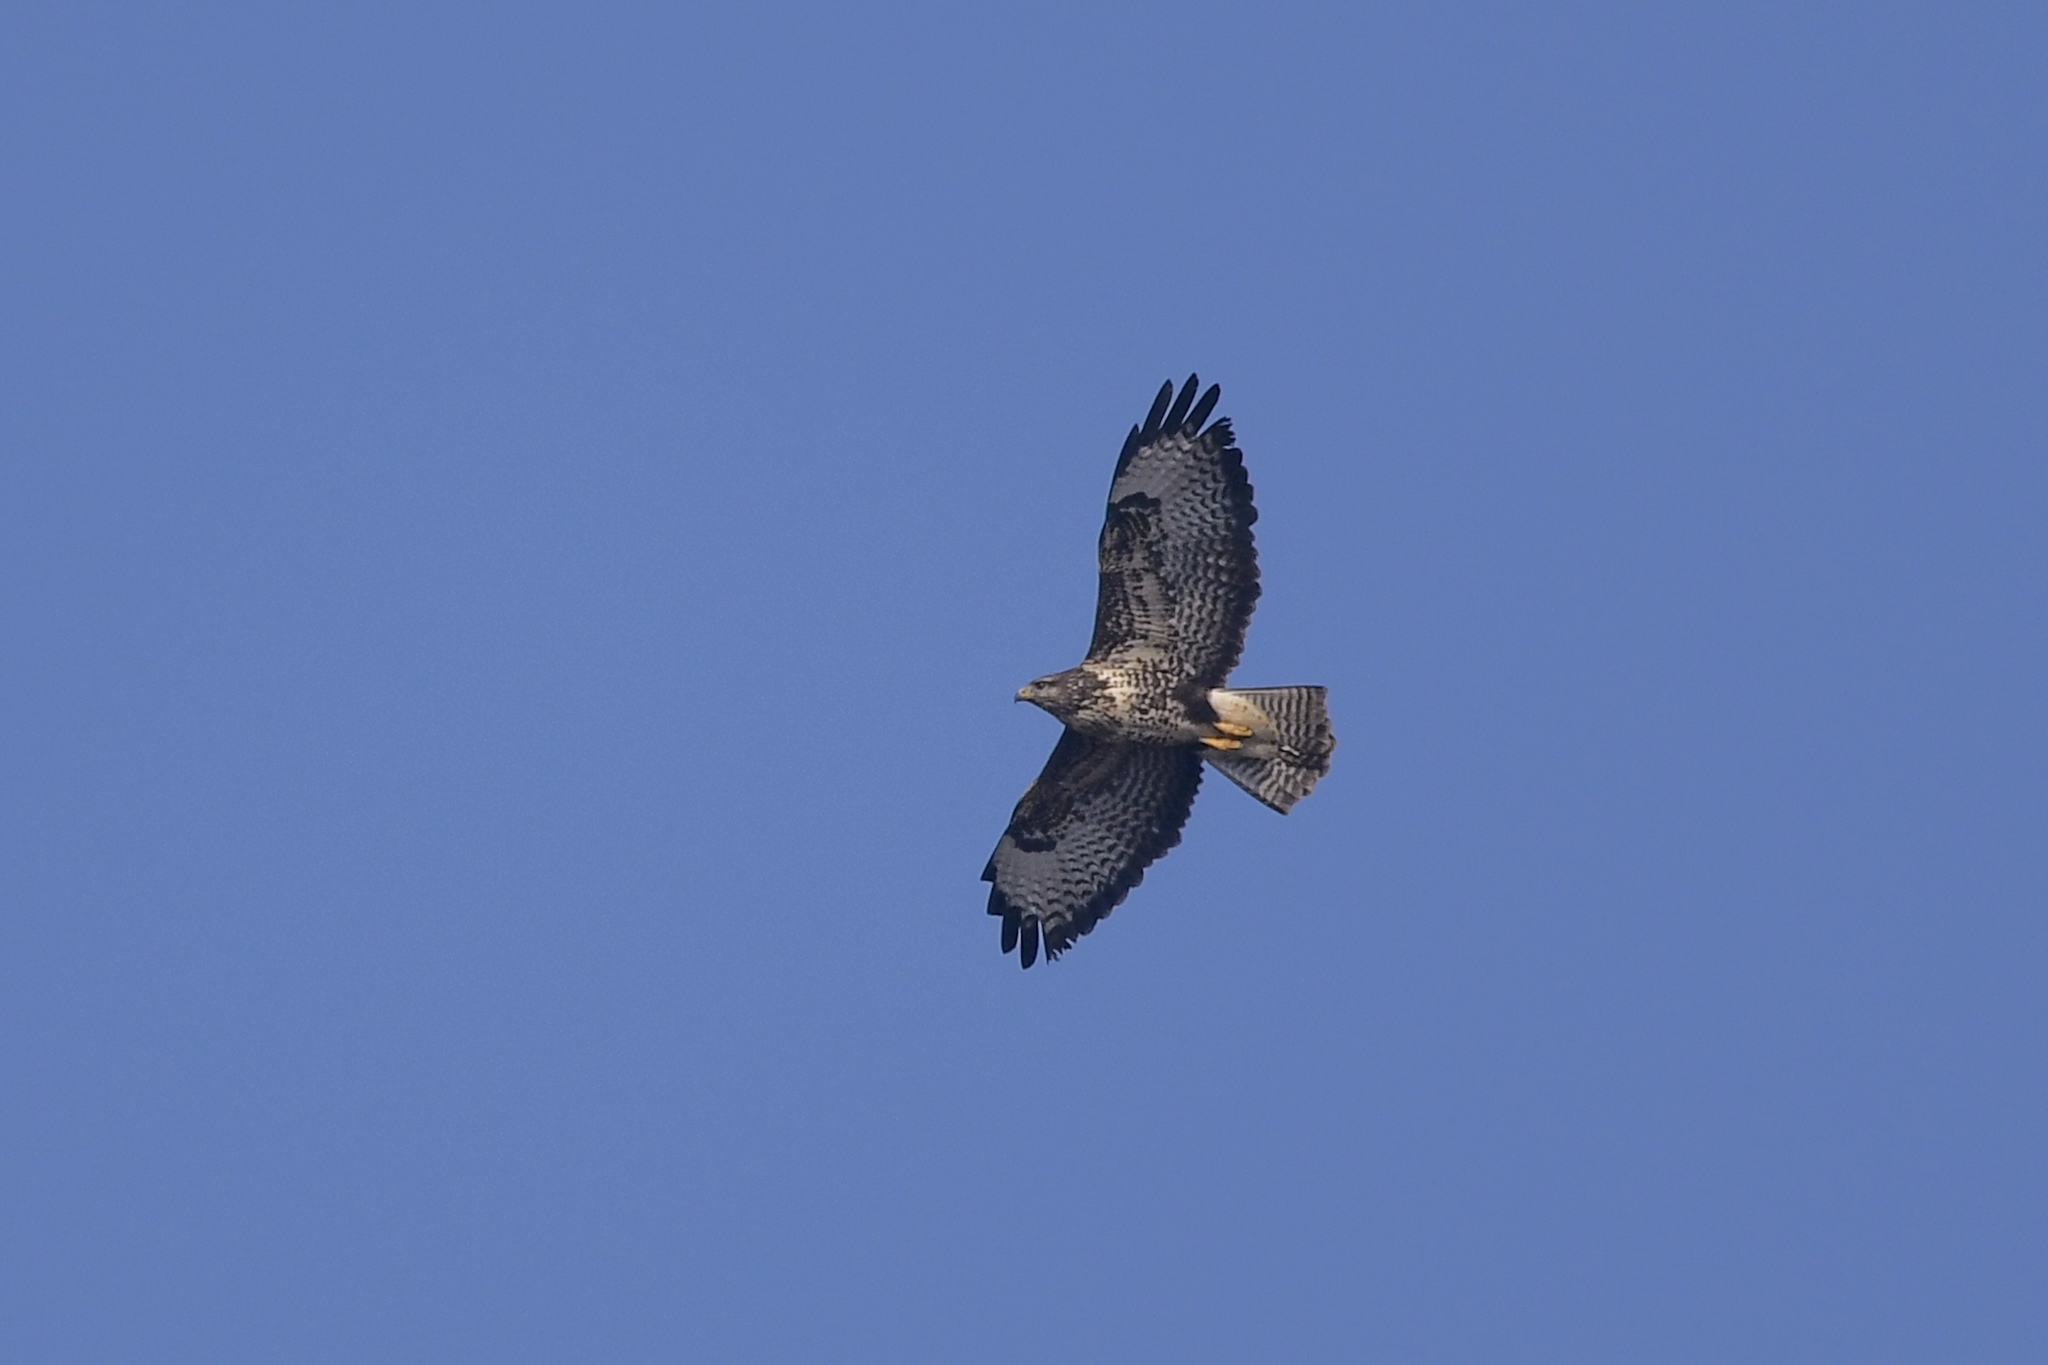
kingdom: Animalia
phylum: Chordata
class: Aves
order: Accipitriformes
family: Accipitridae
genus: Buteo
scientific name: Buteo buteo
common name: Common buzzard
